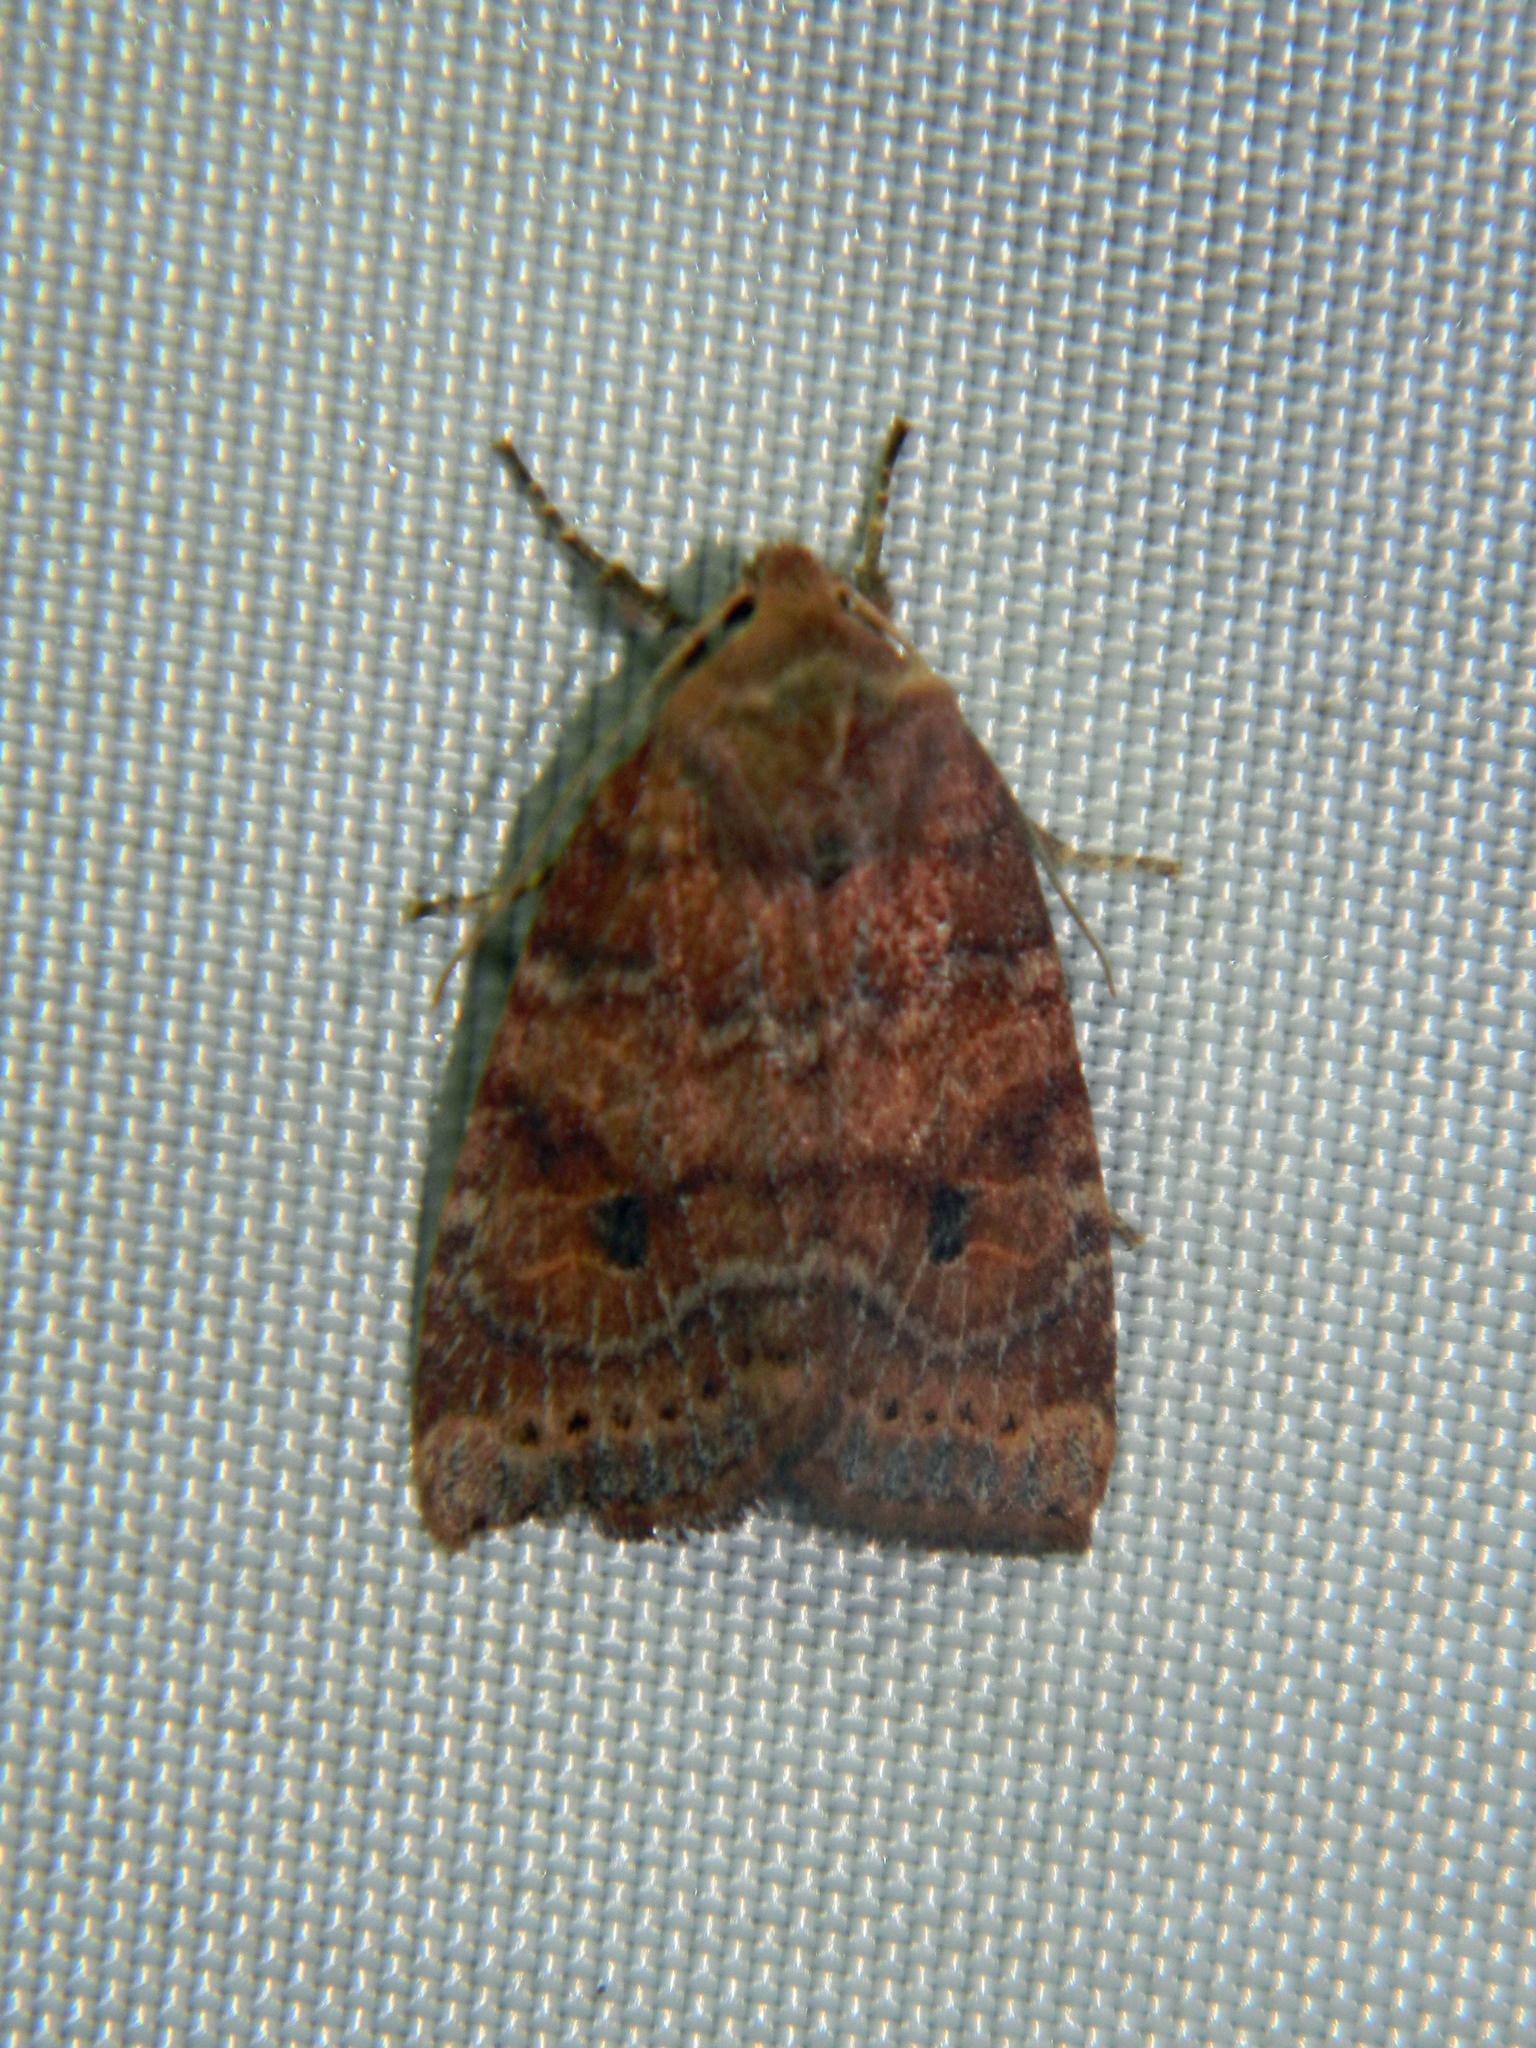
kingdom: Animalia
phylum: Arthropoda
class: Insecta
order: Lepidoptera
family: Noctuidae
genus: Anathix
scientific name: Anathix puta
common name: Puta sallow
